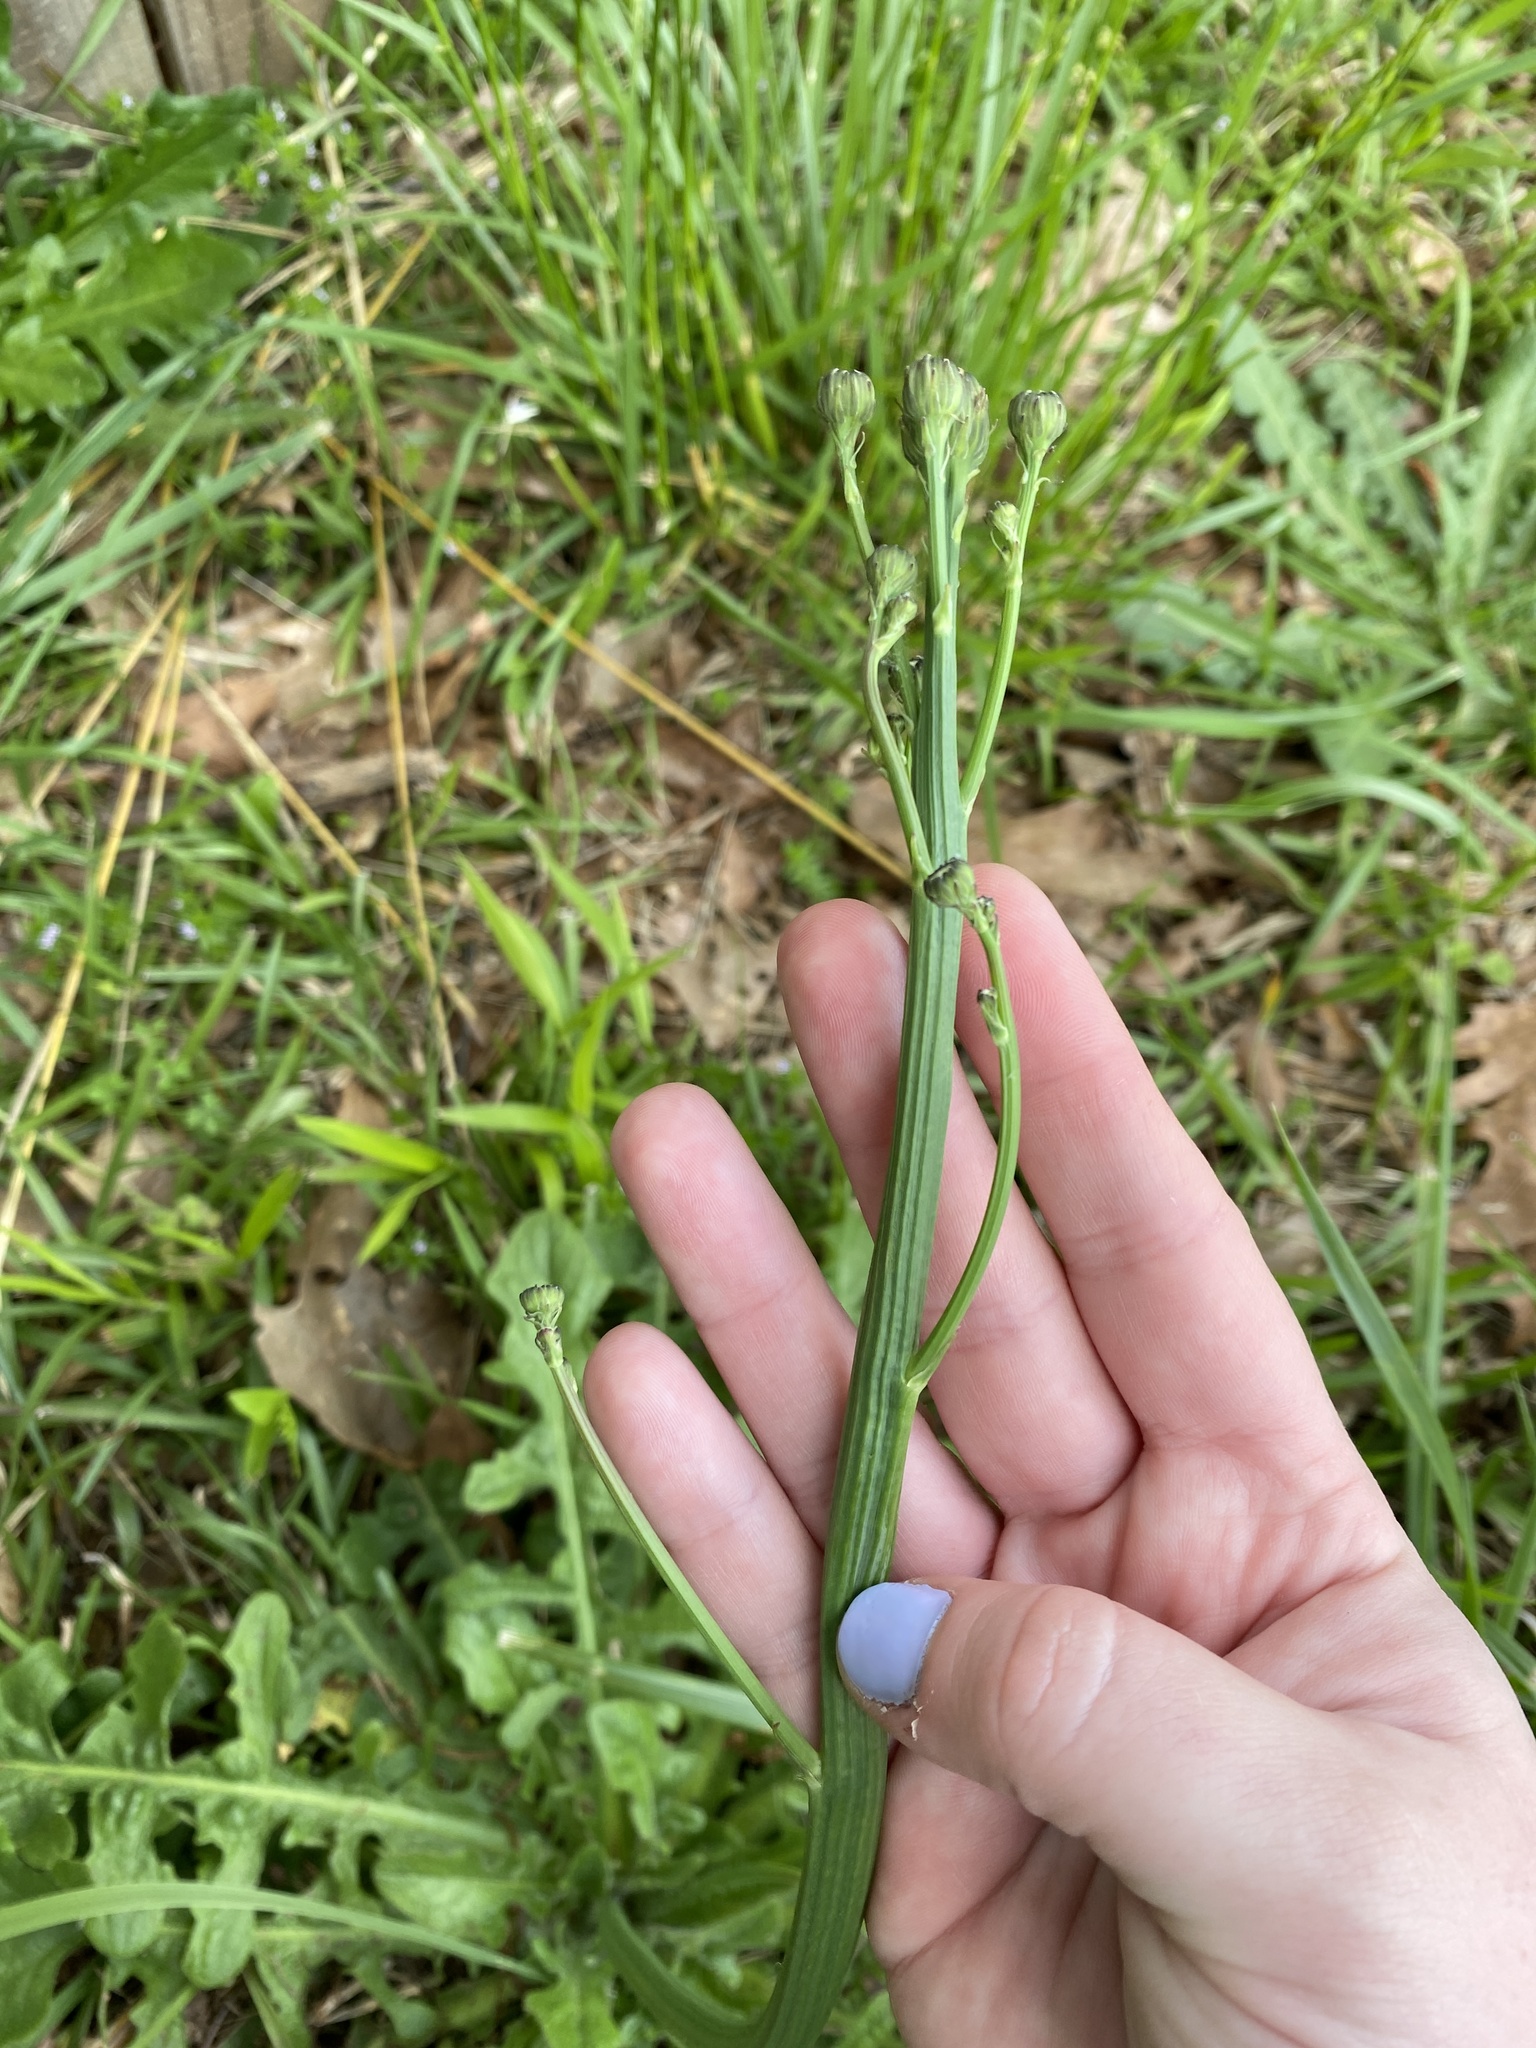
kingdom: Plantae
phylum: Tracheophyta
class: Magnoliopsida
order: Asterales
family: Asteraceae
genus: Hypochaeris
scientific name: Hypochaeris radicata
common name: Flatweed
